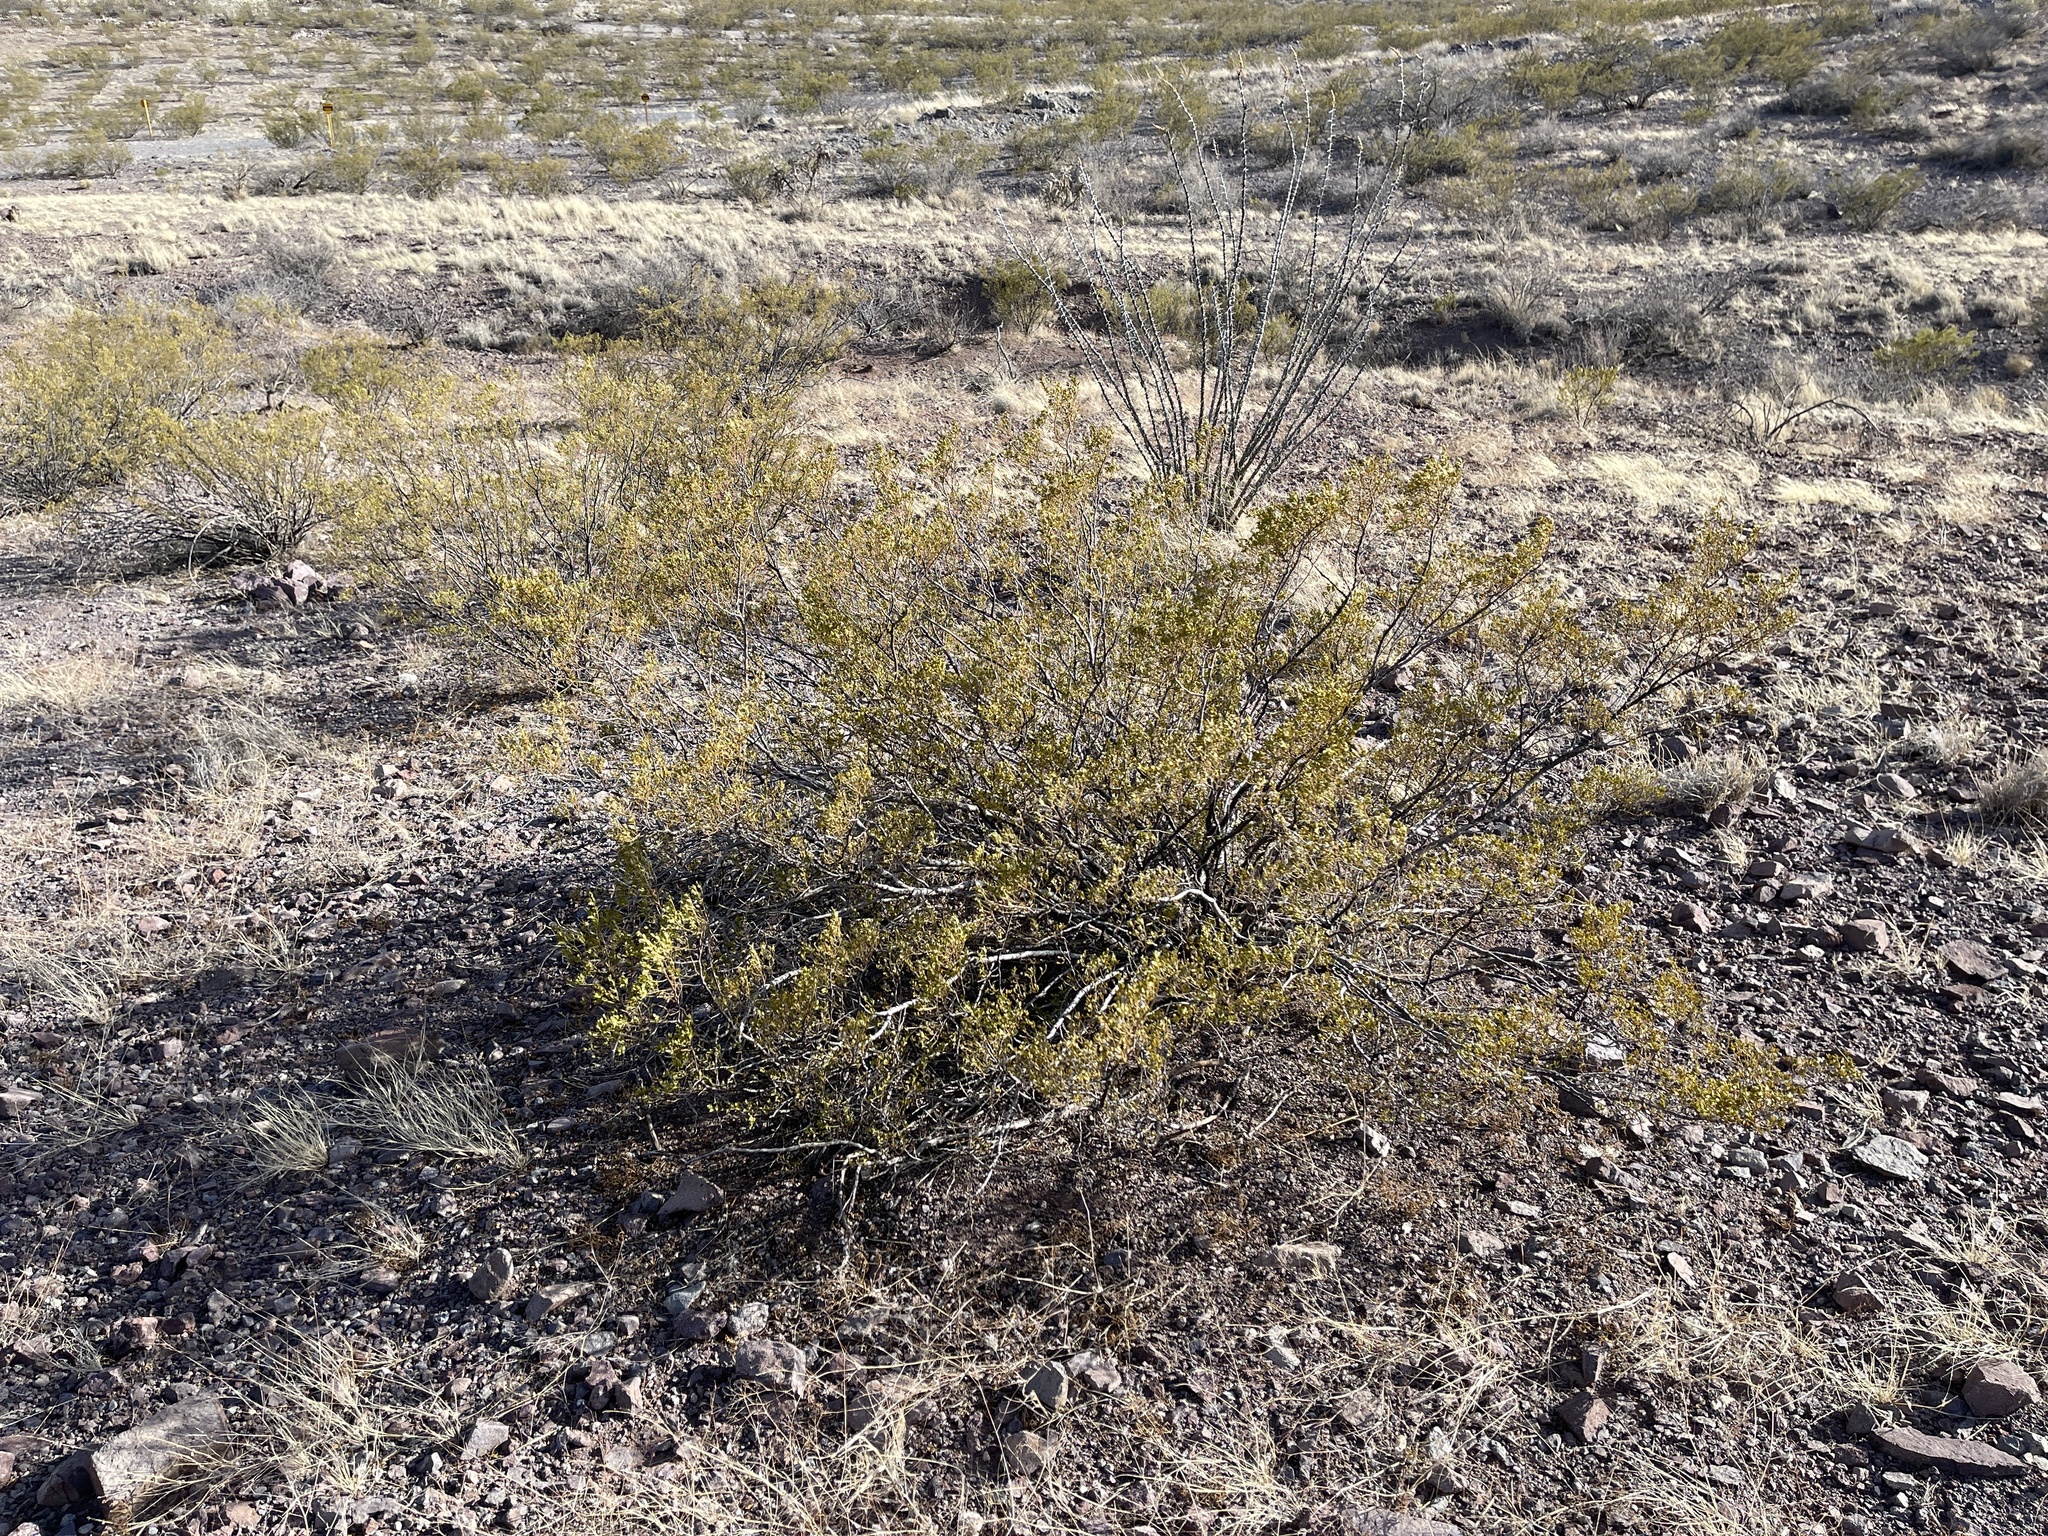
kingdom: Plantae
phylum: Tracheophyta
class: Magnoliopsida
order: Zygophyllales
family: Zygophyllaceae
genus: Larrea
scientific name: Larrea tridentata
